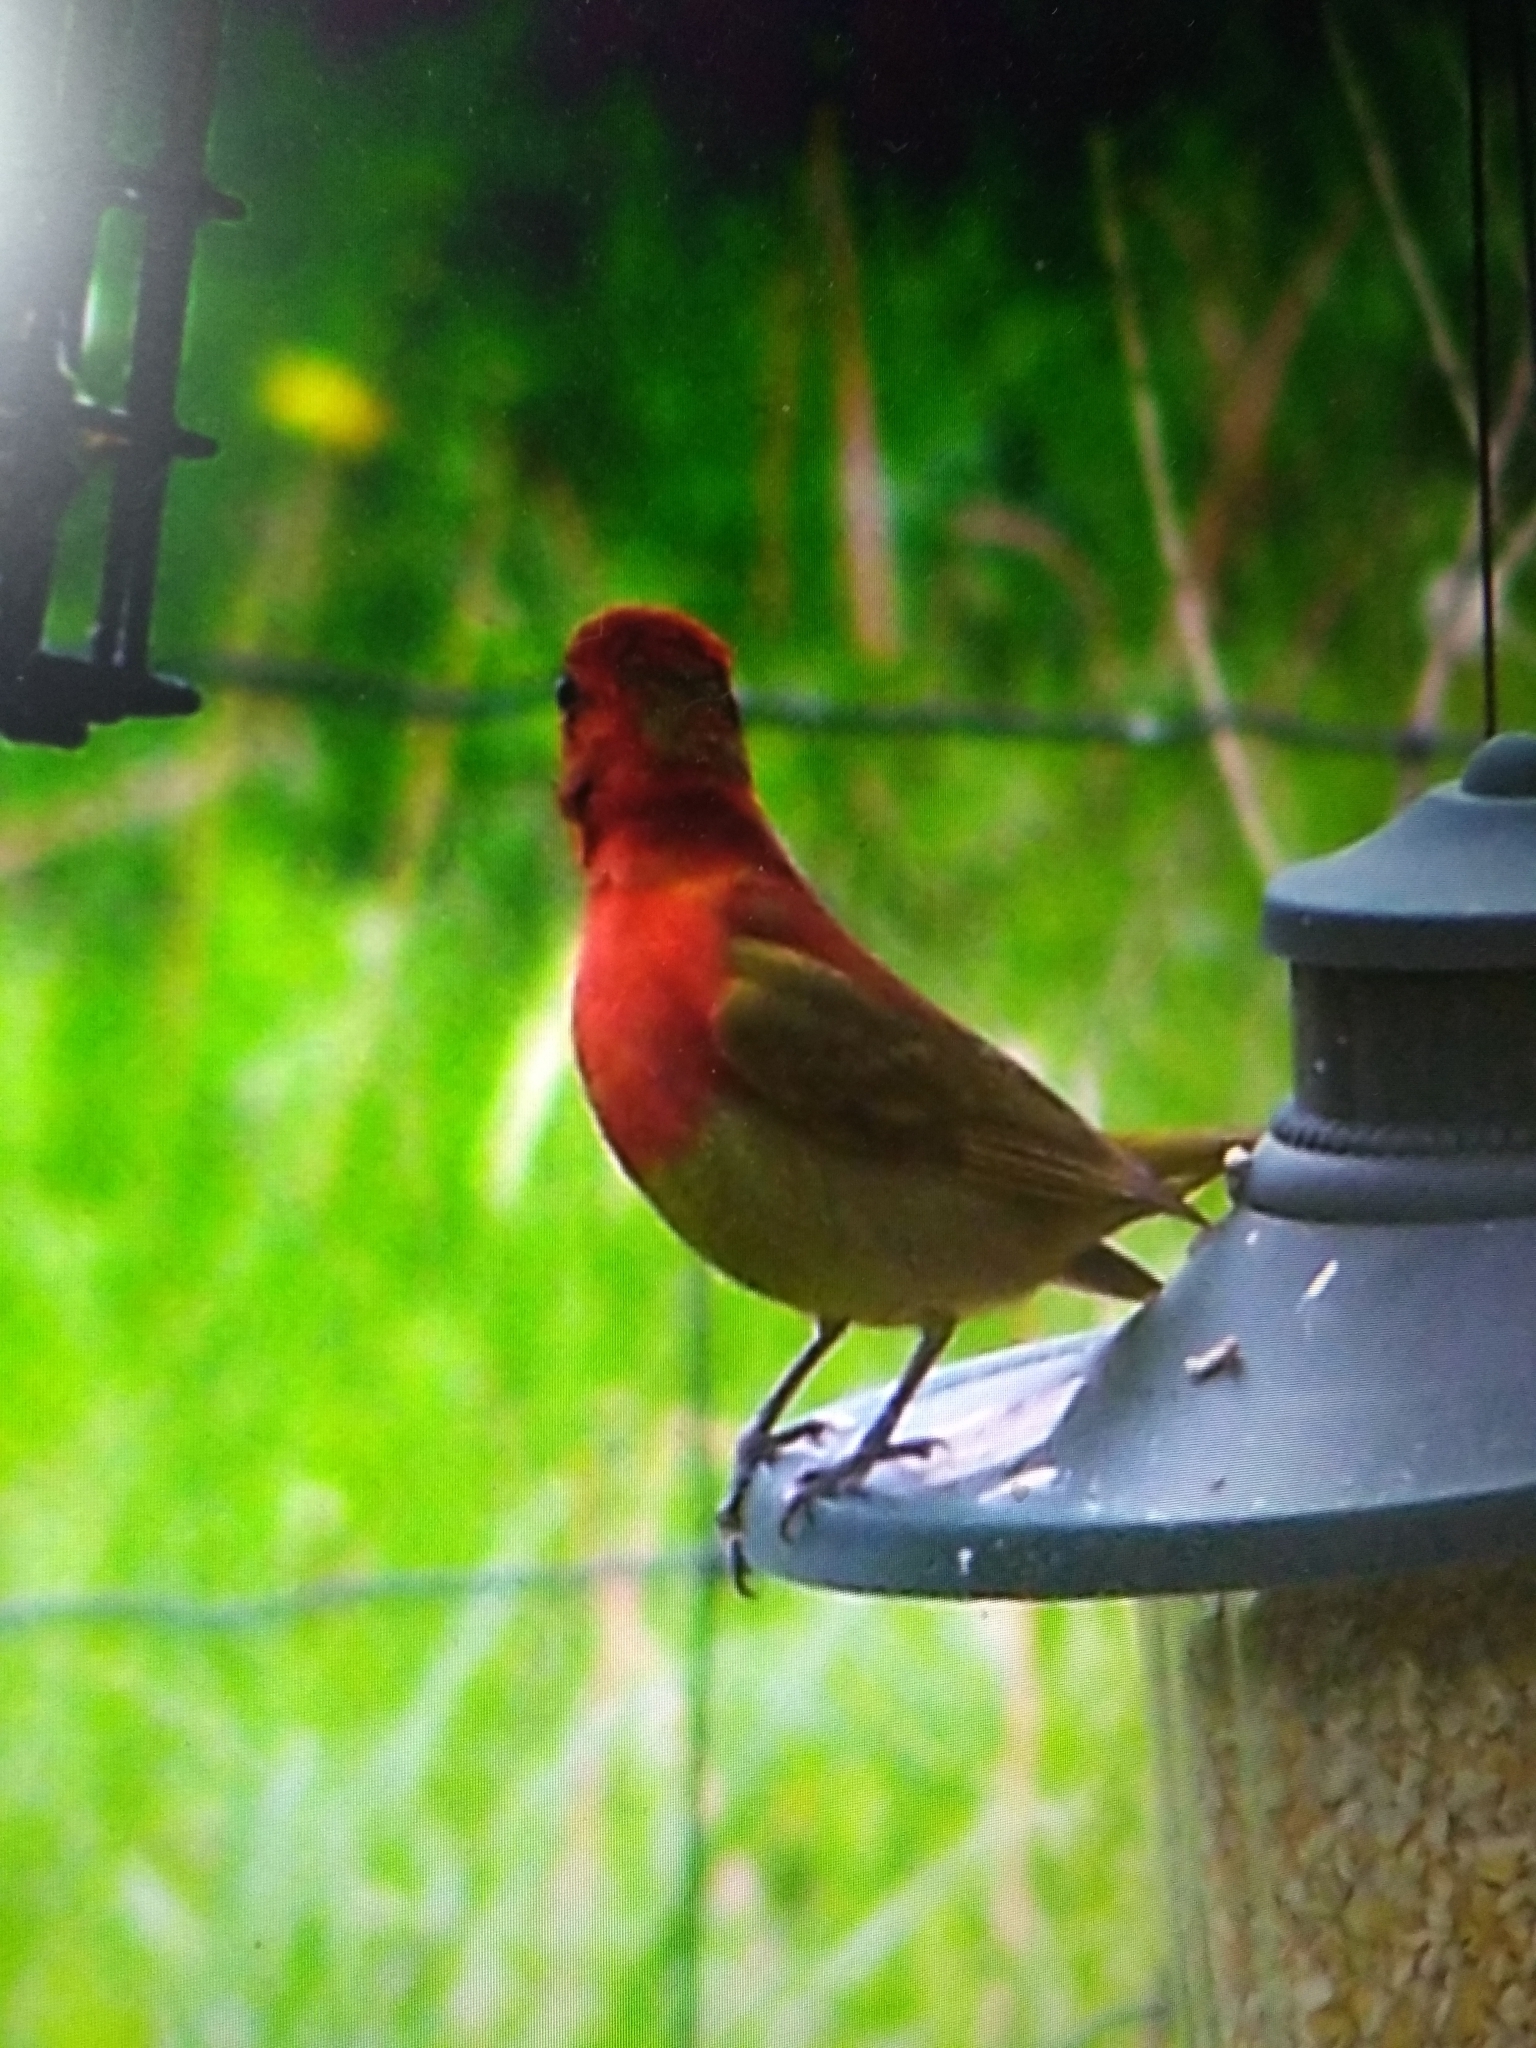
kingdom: Animalia
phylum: Chordata
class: Aves
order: Passeriformes
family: Cardinalidae
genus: Piranga
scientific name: Piranga rubra
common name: Summer tanager
